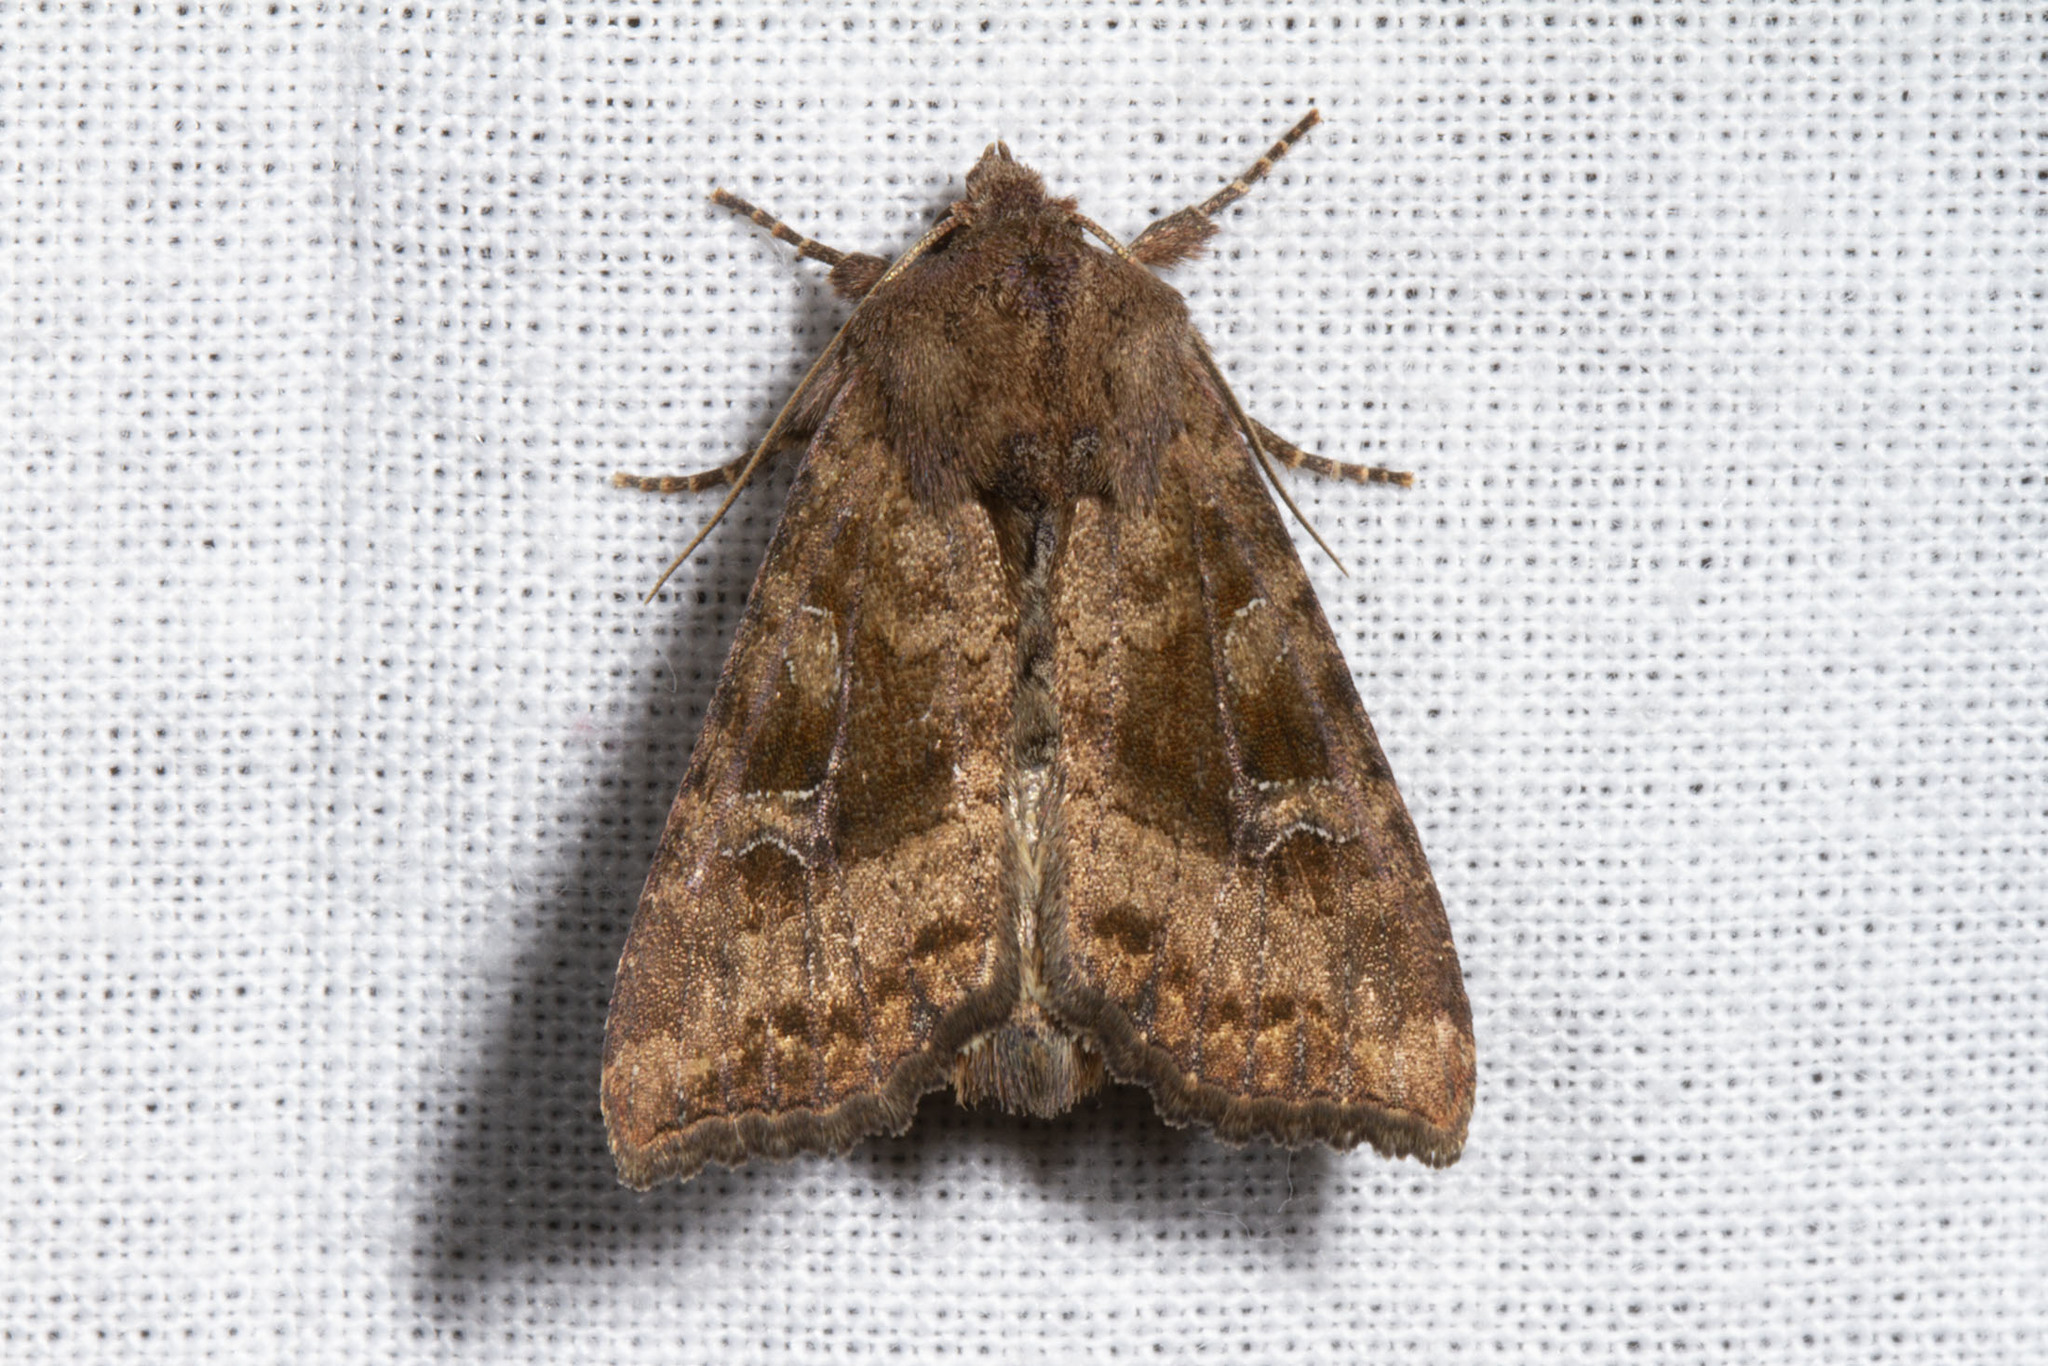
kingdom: Animalia
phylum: Arthropoda
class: Insecta
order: Lepidoptera
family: Noctuidae
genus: Loscopia
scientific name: Loscopia velata
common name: Veiled ear moth
